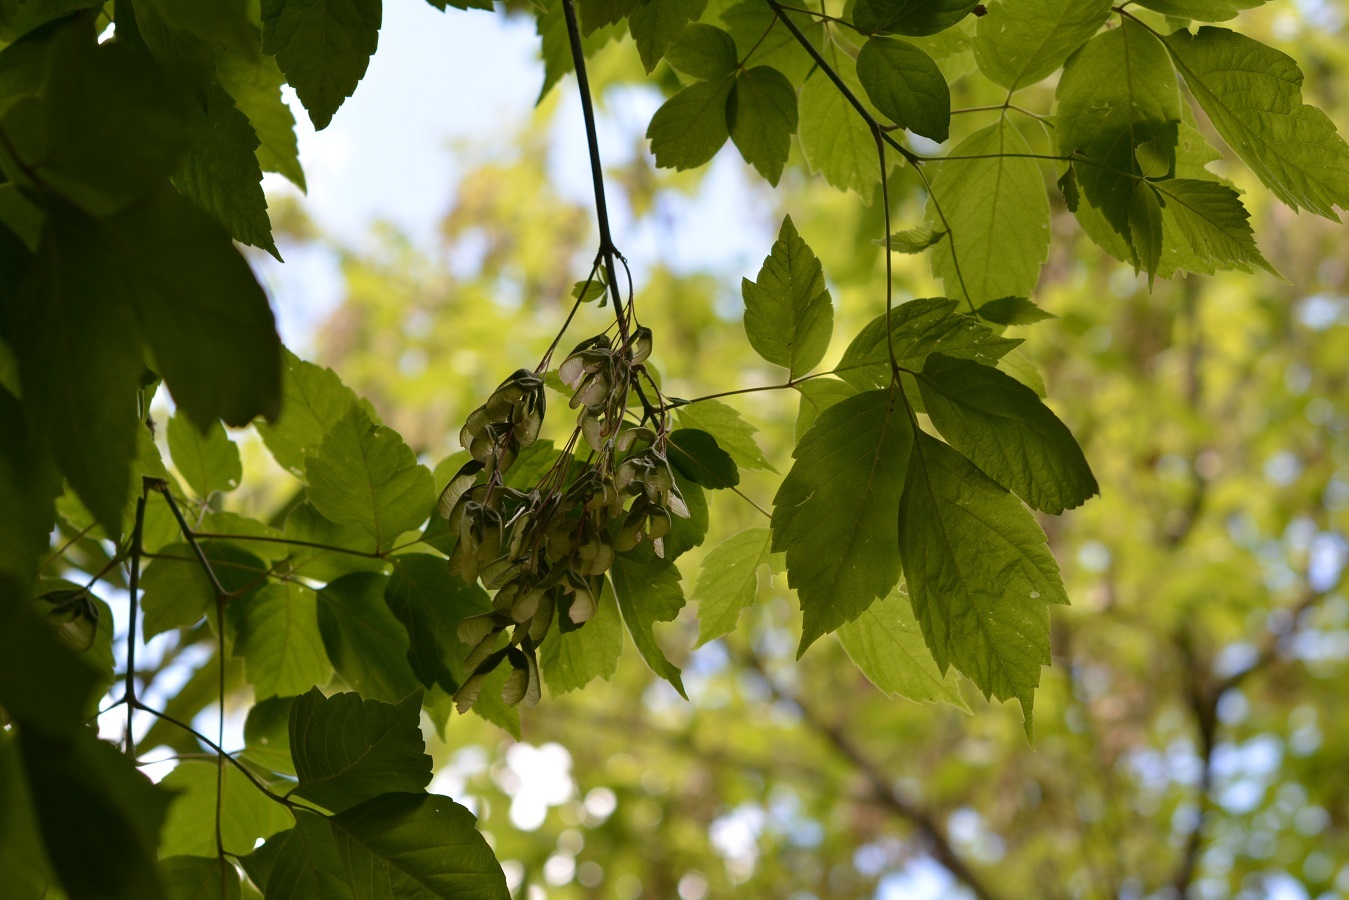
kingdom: Plantae
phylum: Tracheophyta
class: Magnoliopsida
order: Sapindales
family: Sapindaceae
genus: Acer
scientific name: Acer negundo
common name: Ashleaf maple
